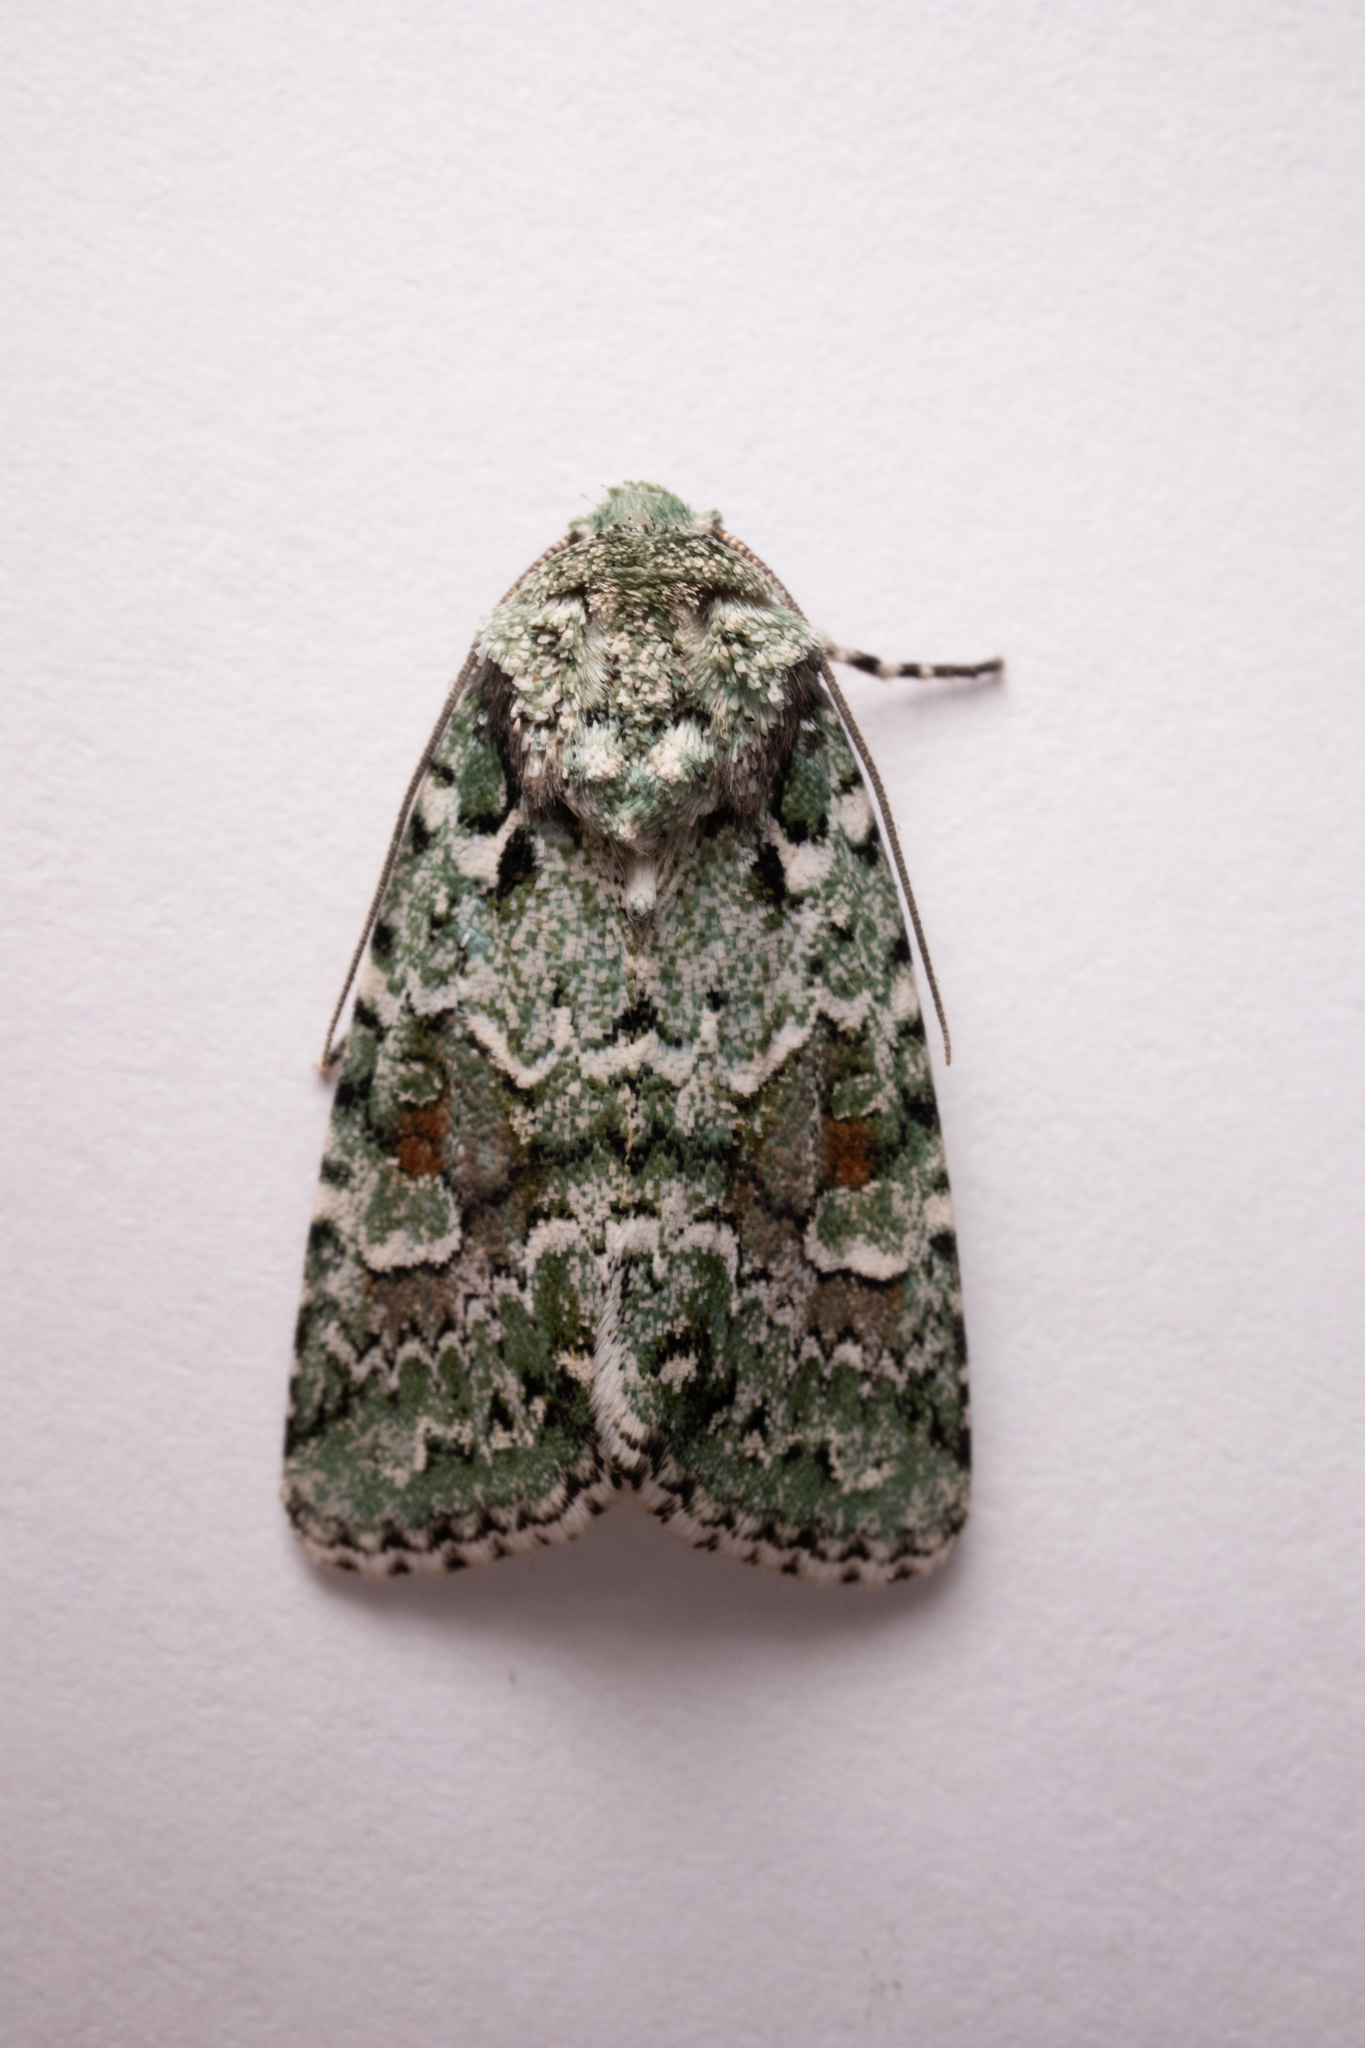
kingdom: Animalia
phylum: Arthropoda
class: Insecta
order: Lepidoptera
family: Noctuidae
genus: Lacinipolia
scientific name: Lacinipolia laudabilis
